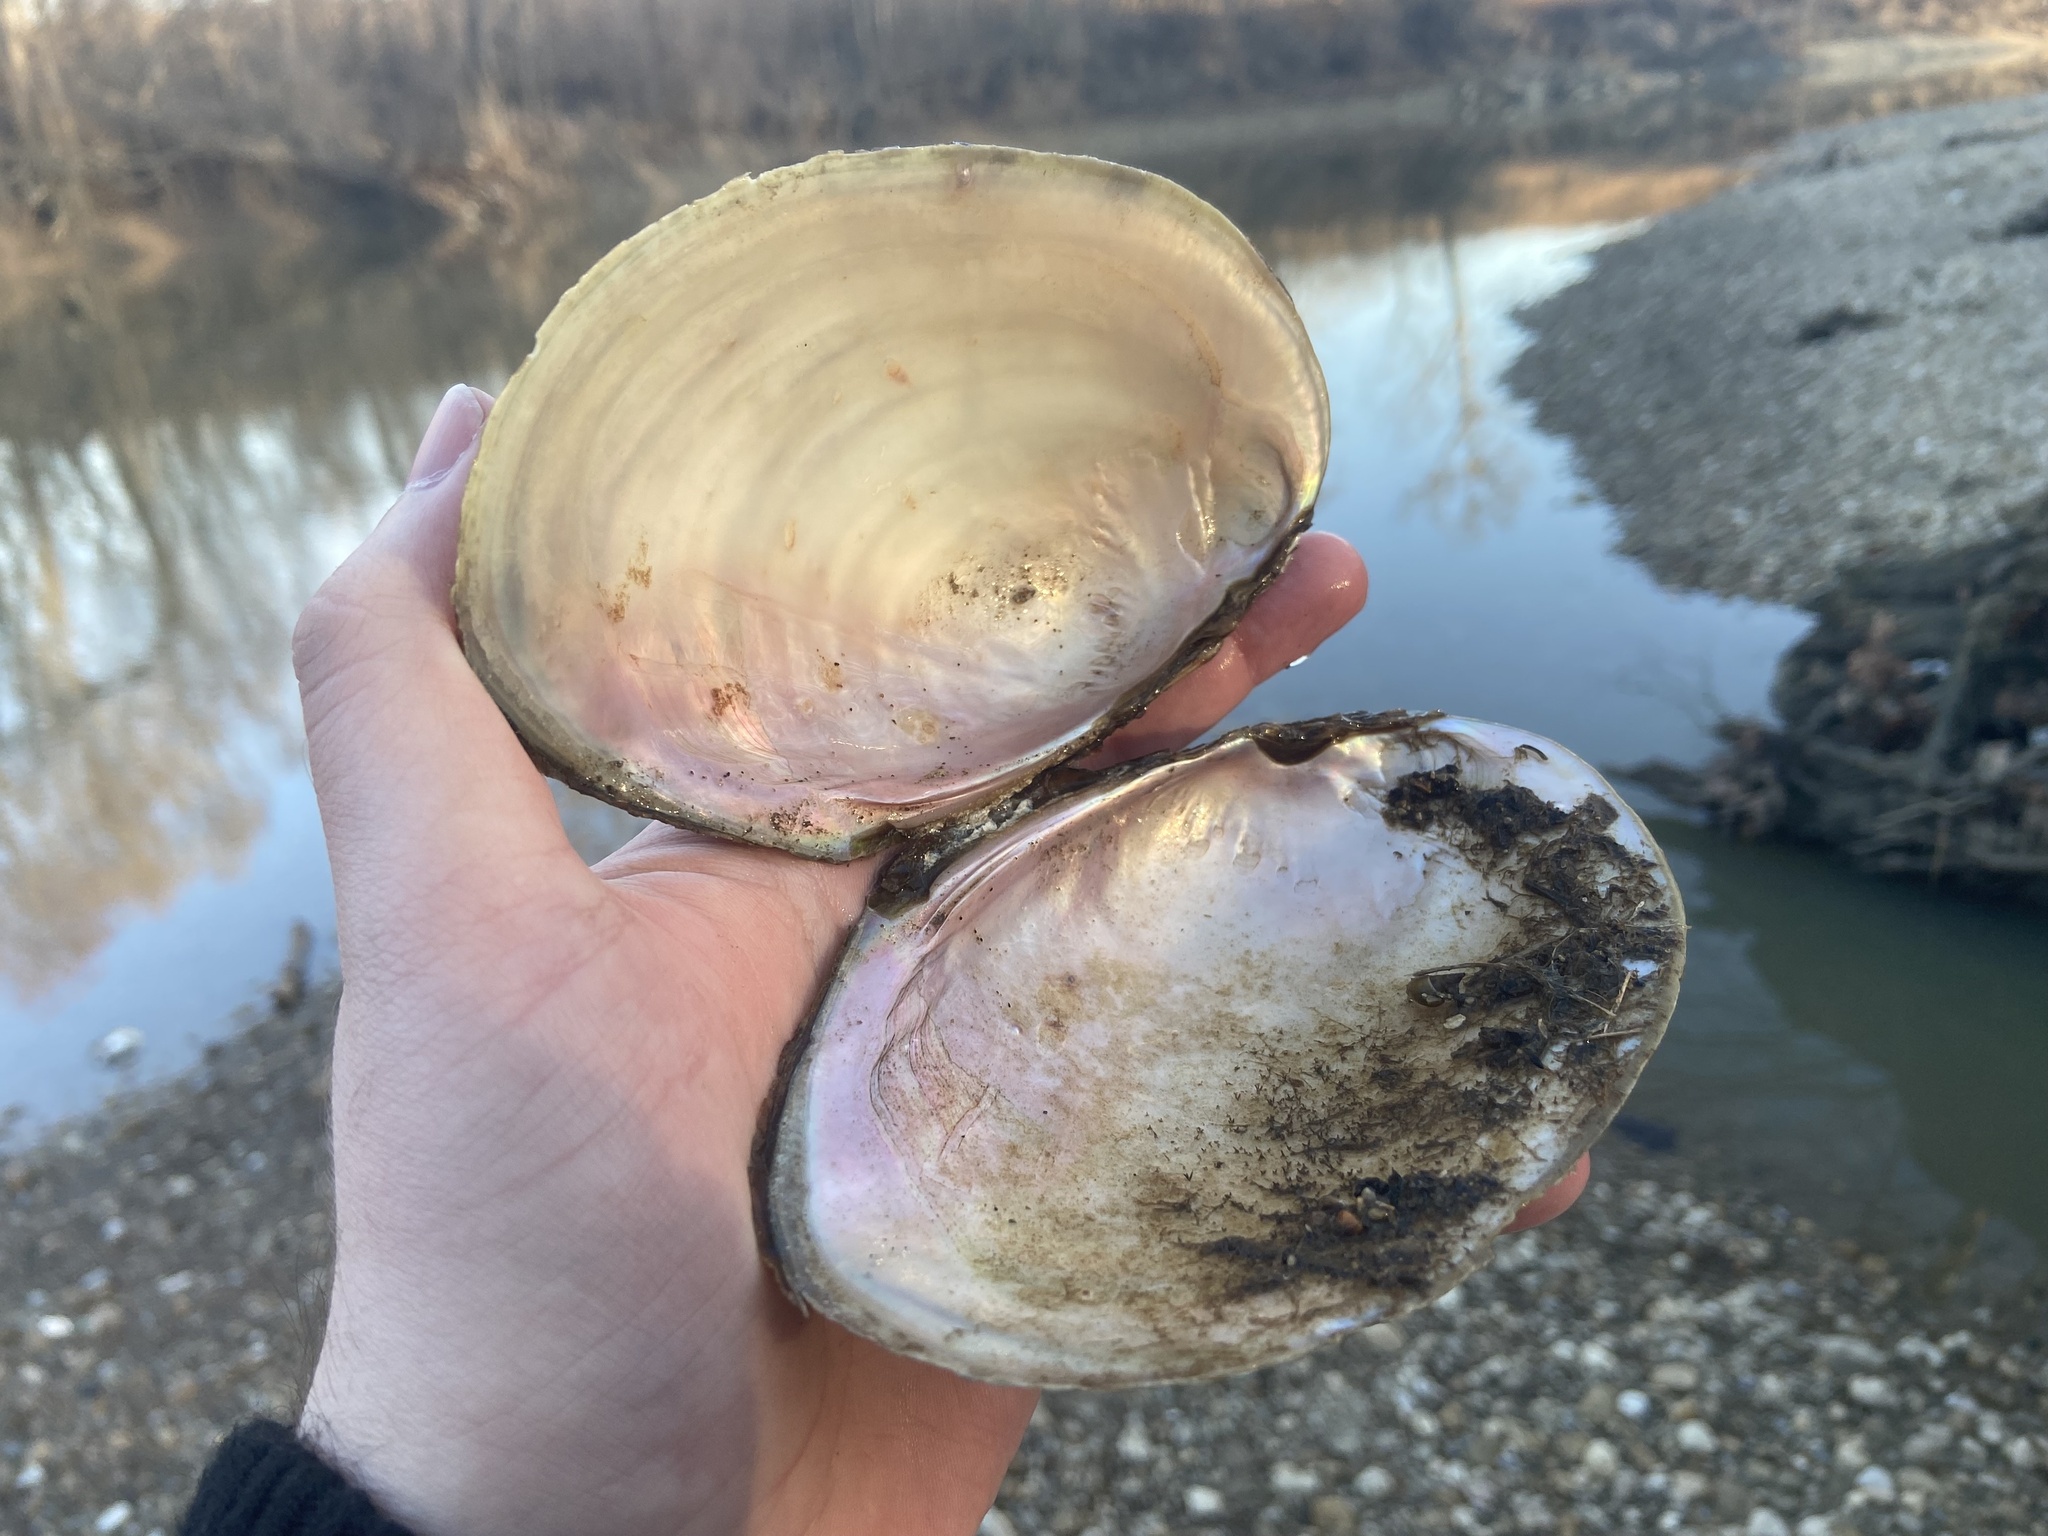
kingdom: Animalia
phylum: Mollusca
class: Bivalvia
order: Unionida
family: Unionidae
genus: Potamilus
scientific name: Potamilus fragilis
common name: Fragile papershell
